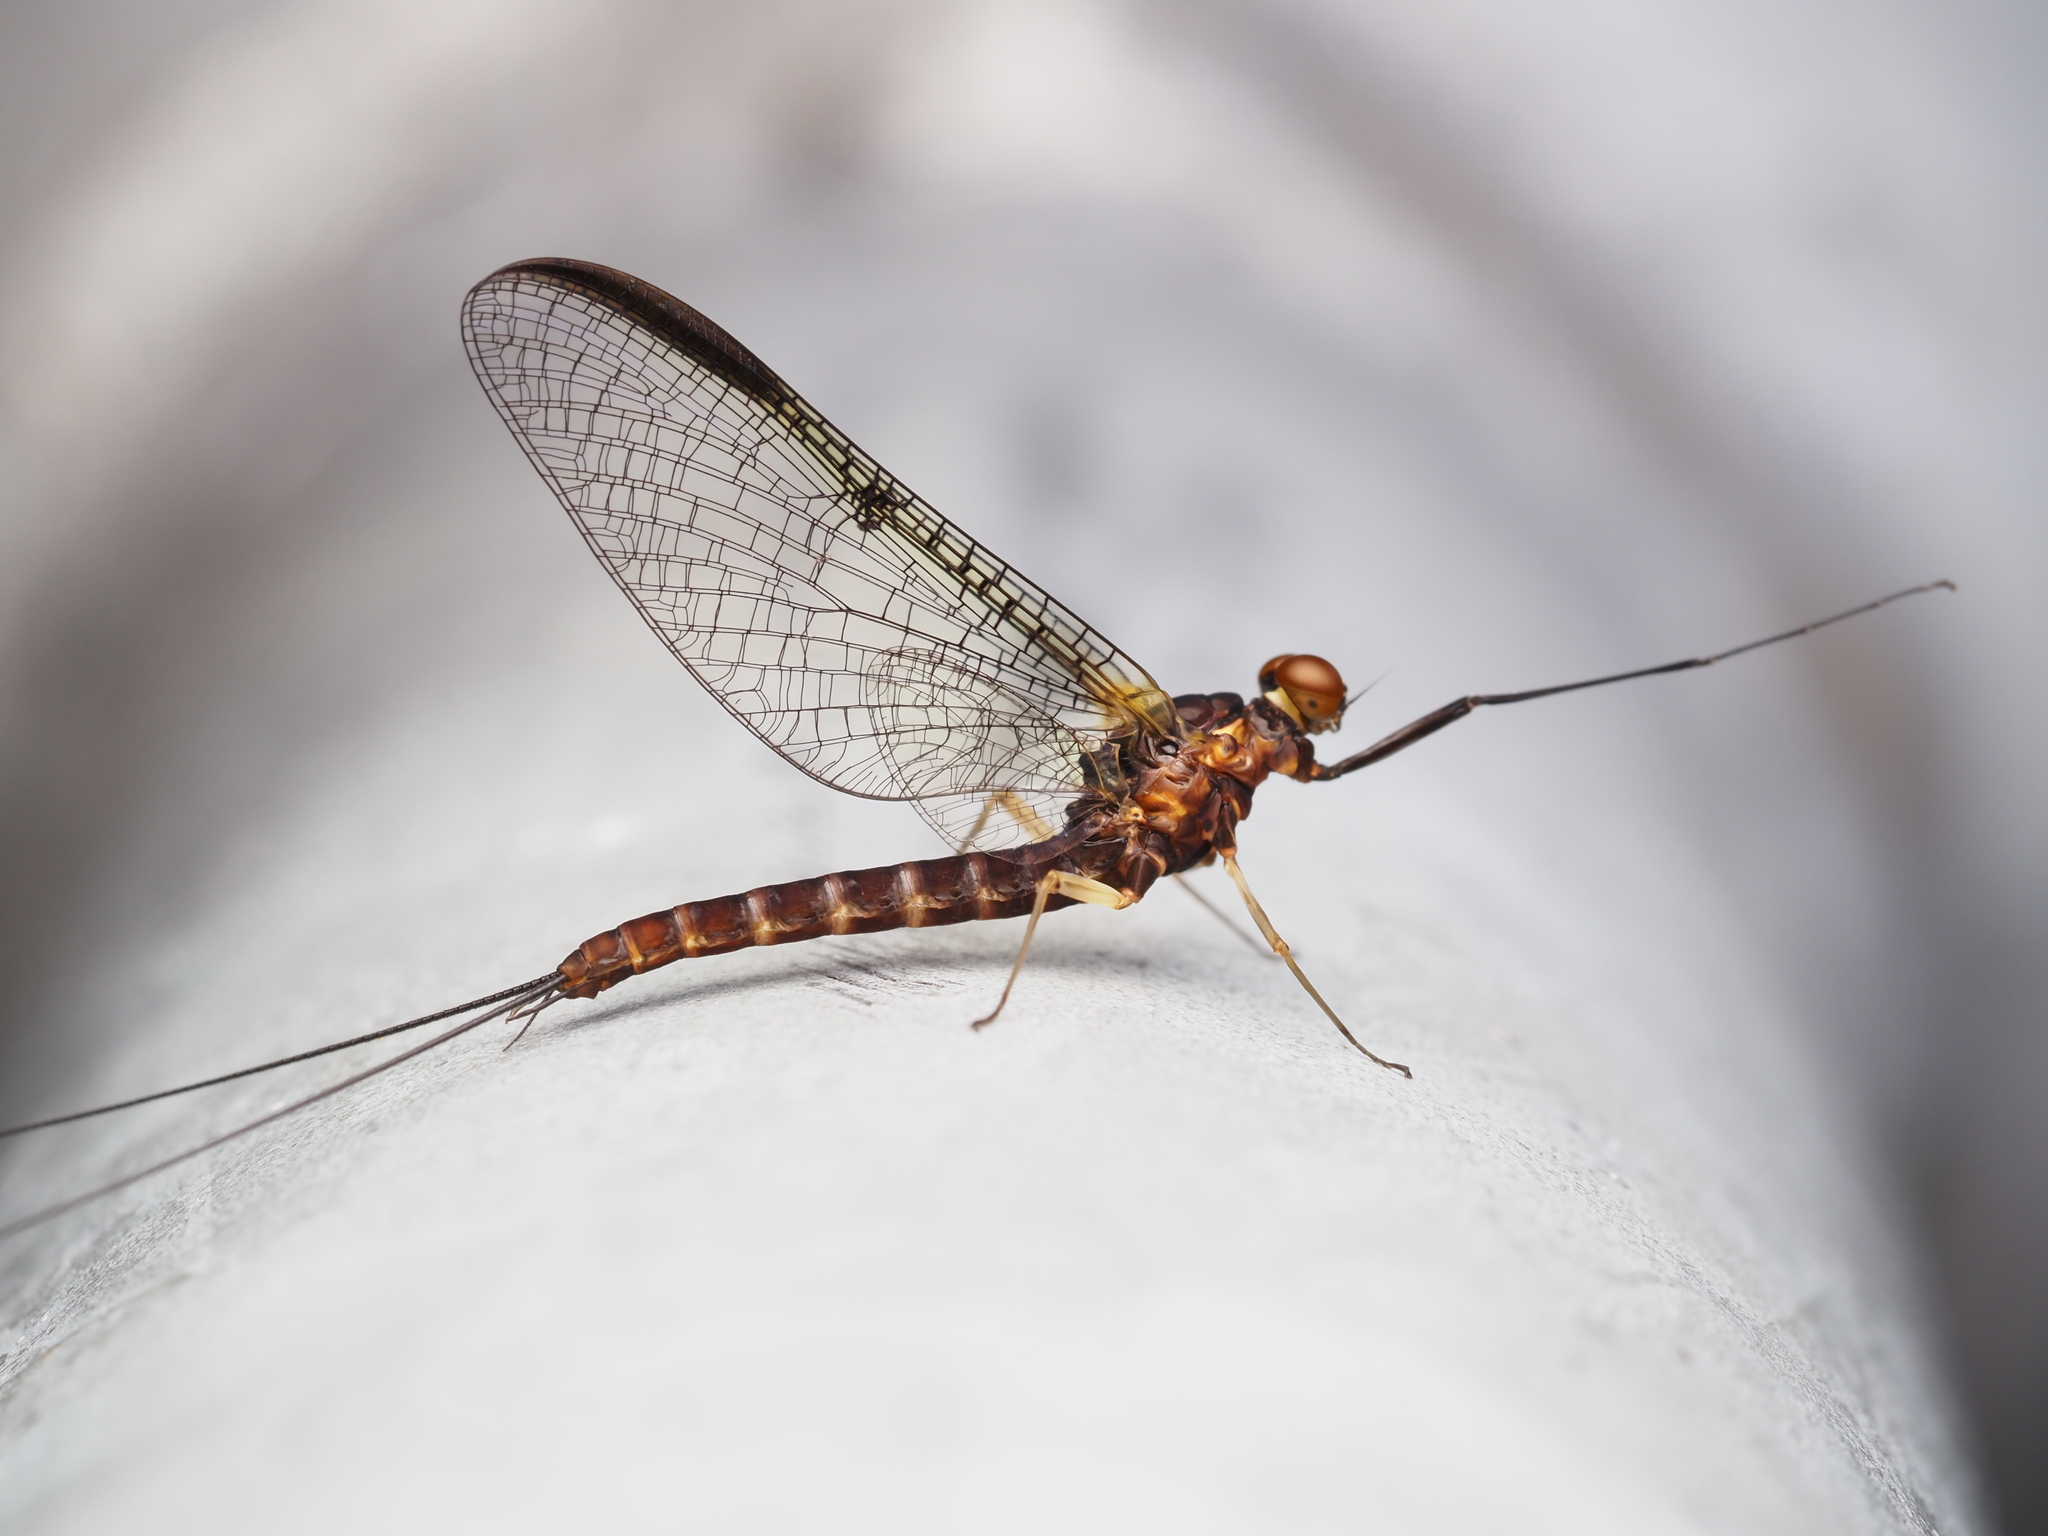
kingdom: Animalia
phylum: Arthropoda
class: Insecta
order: Ephemeroptera
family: Coloburiscidae
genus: Coloburiscus
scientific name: Coloburiscus humeralis
